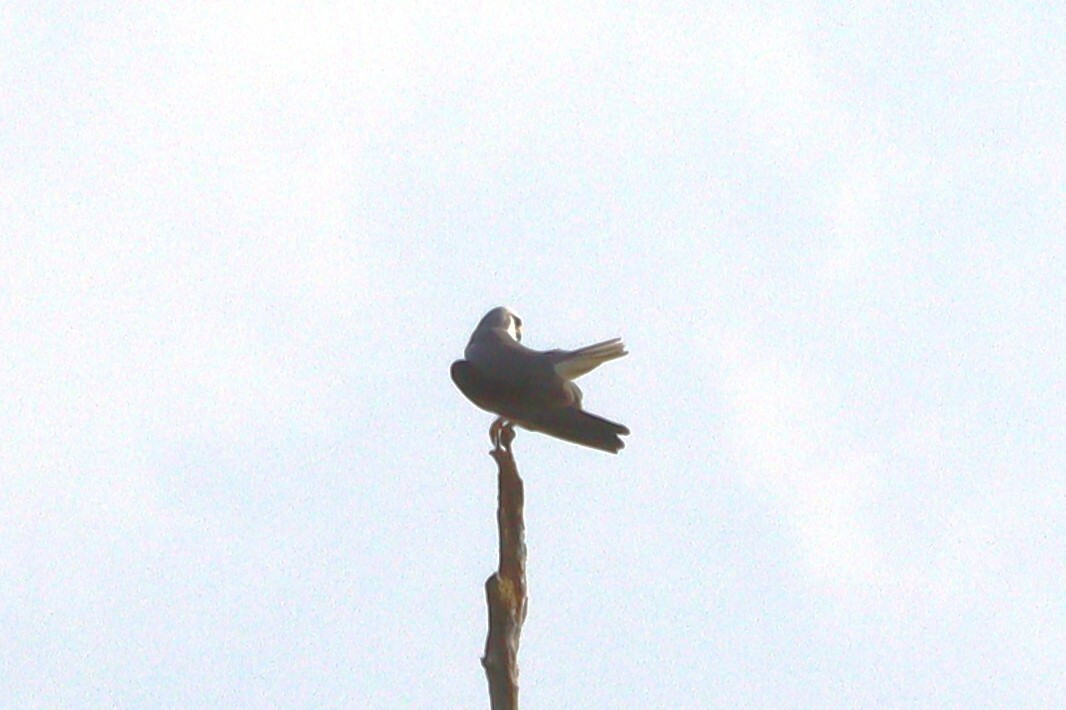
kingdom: Animalia
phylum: Chordata
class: Aves
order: Accipitriformes
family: Accipitridae
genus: Elanus
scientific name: Elanus caeruleus
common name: Black-winged kite
